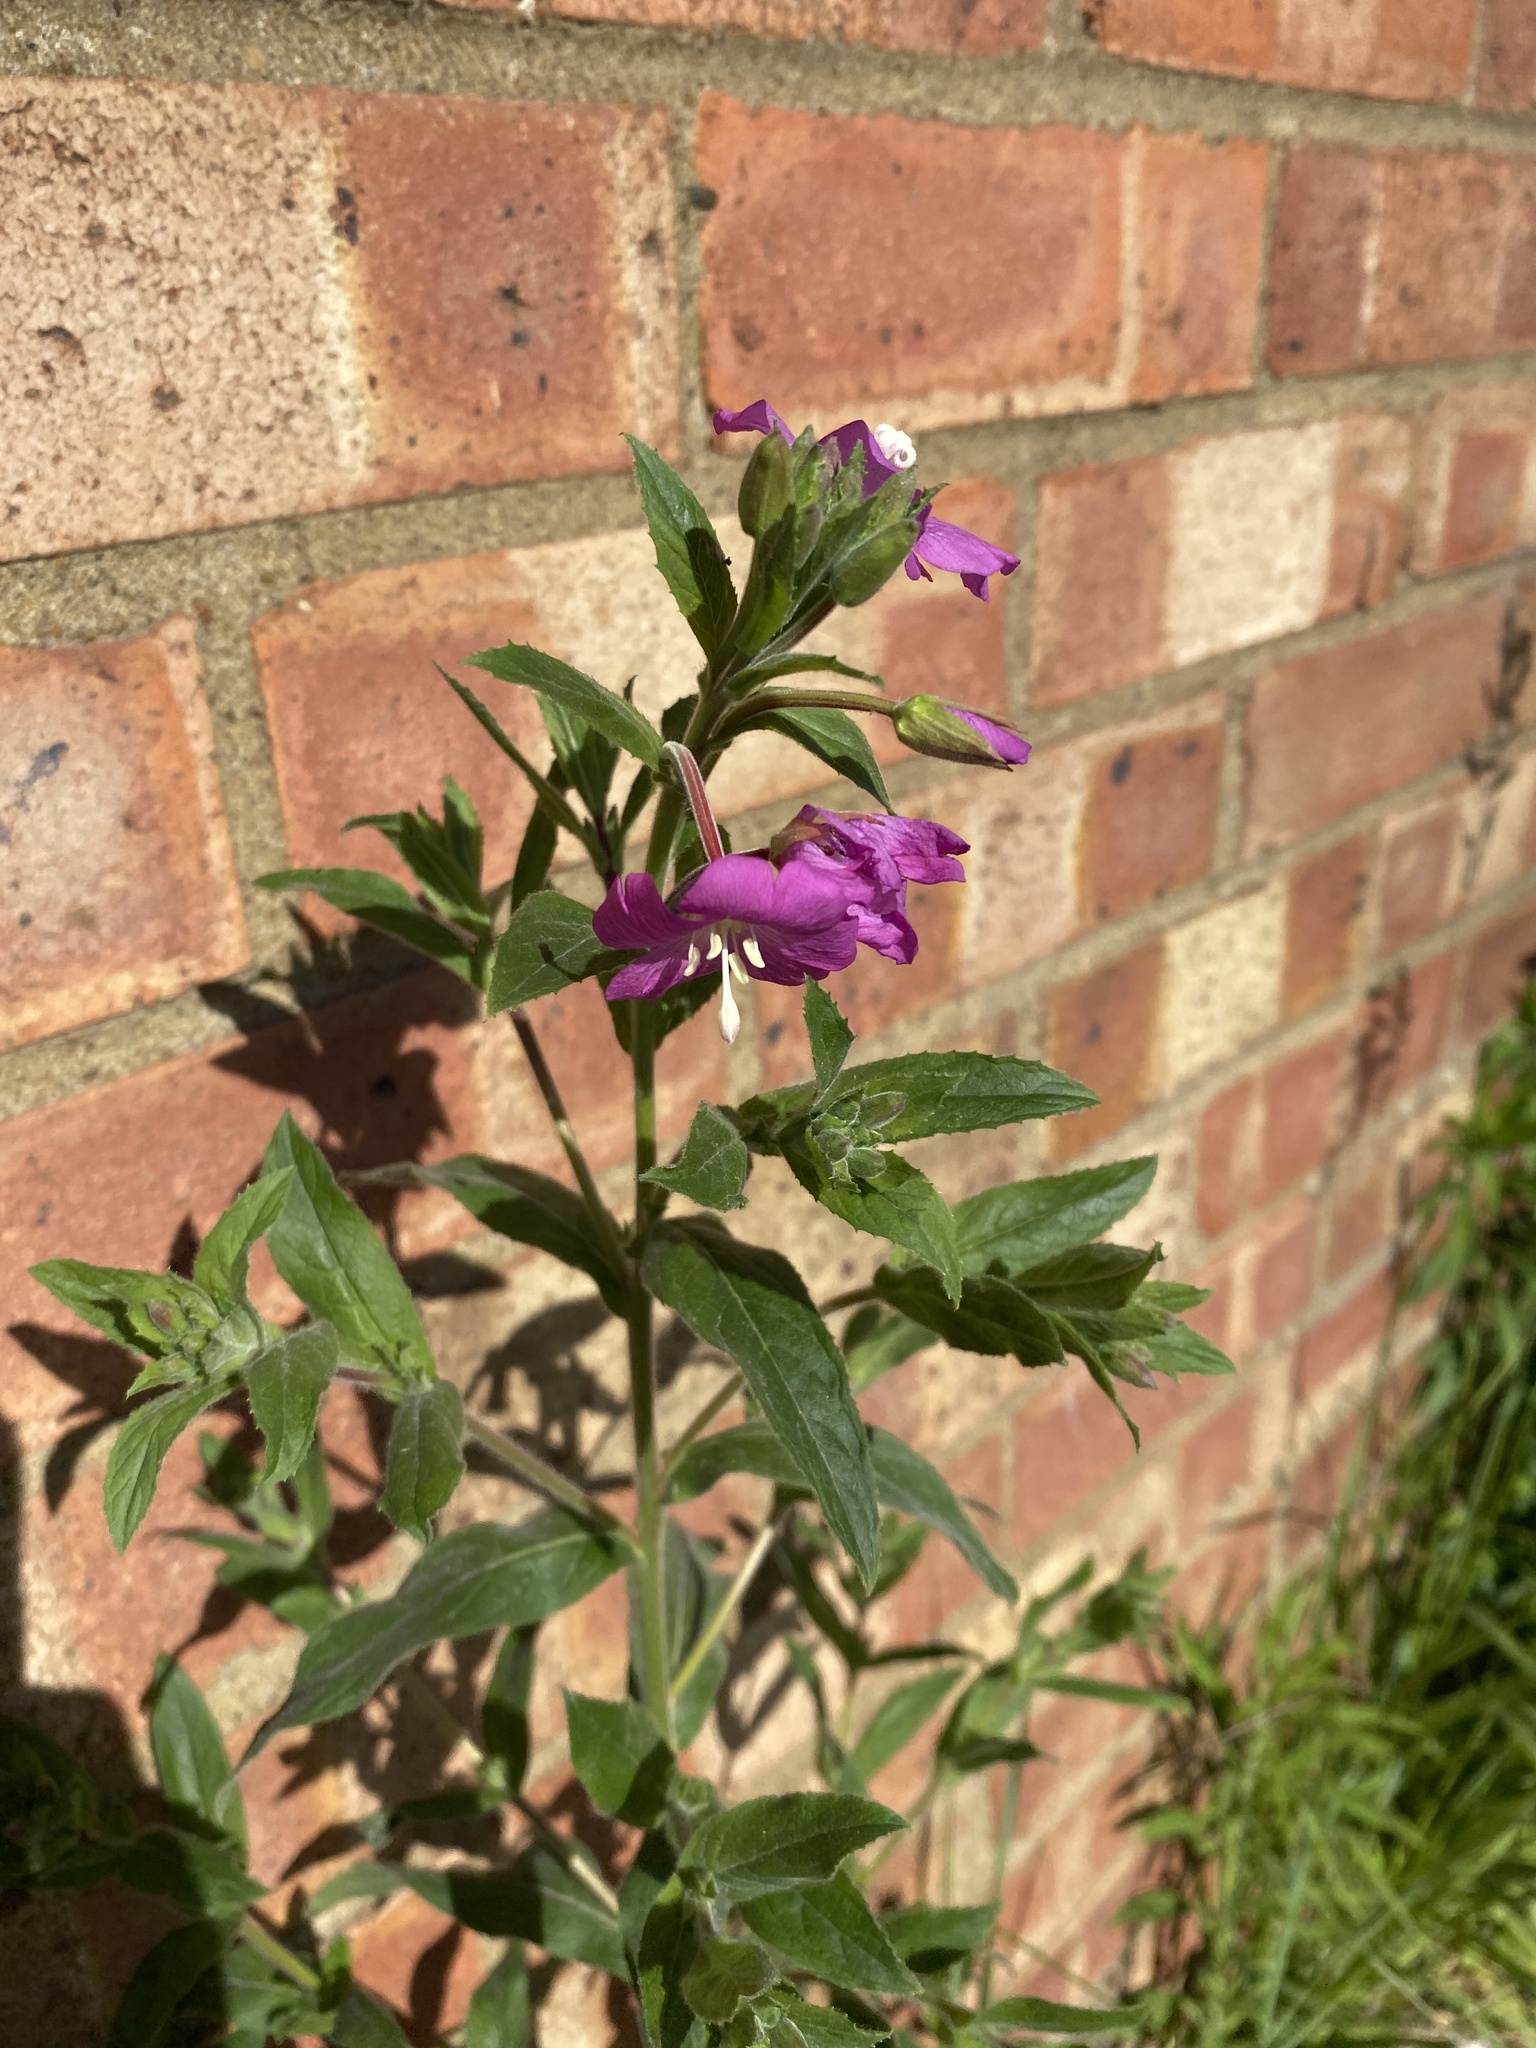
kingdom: Plantae
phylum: Tracheophyta
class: Magnoliopsida
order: Myrtales
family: Onagraceae
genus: Epilobium
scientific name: Epilobium hirsutum
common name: Great willowherb
